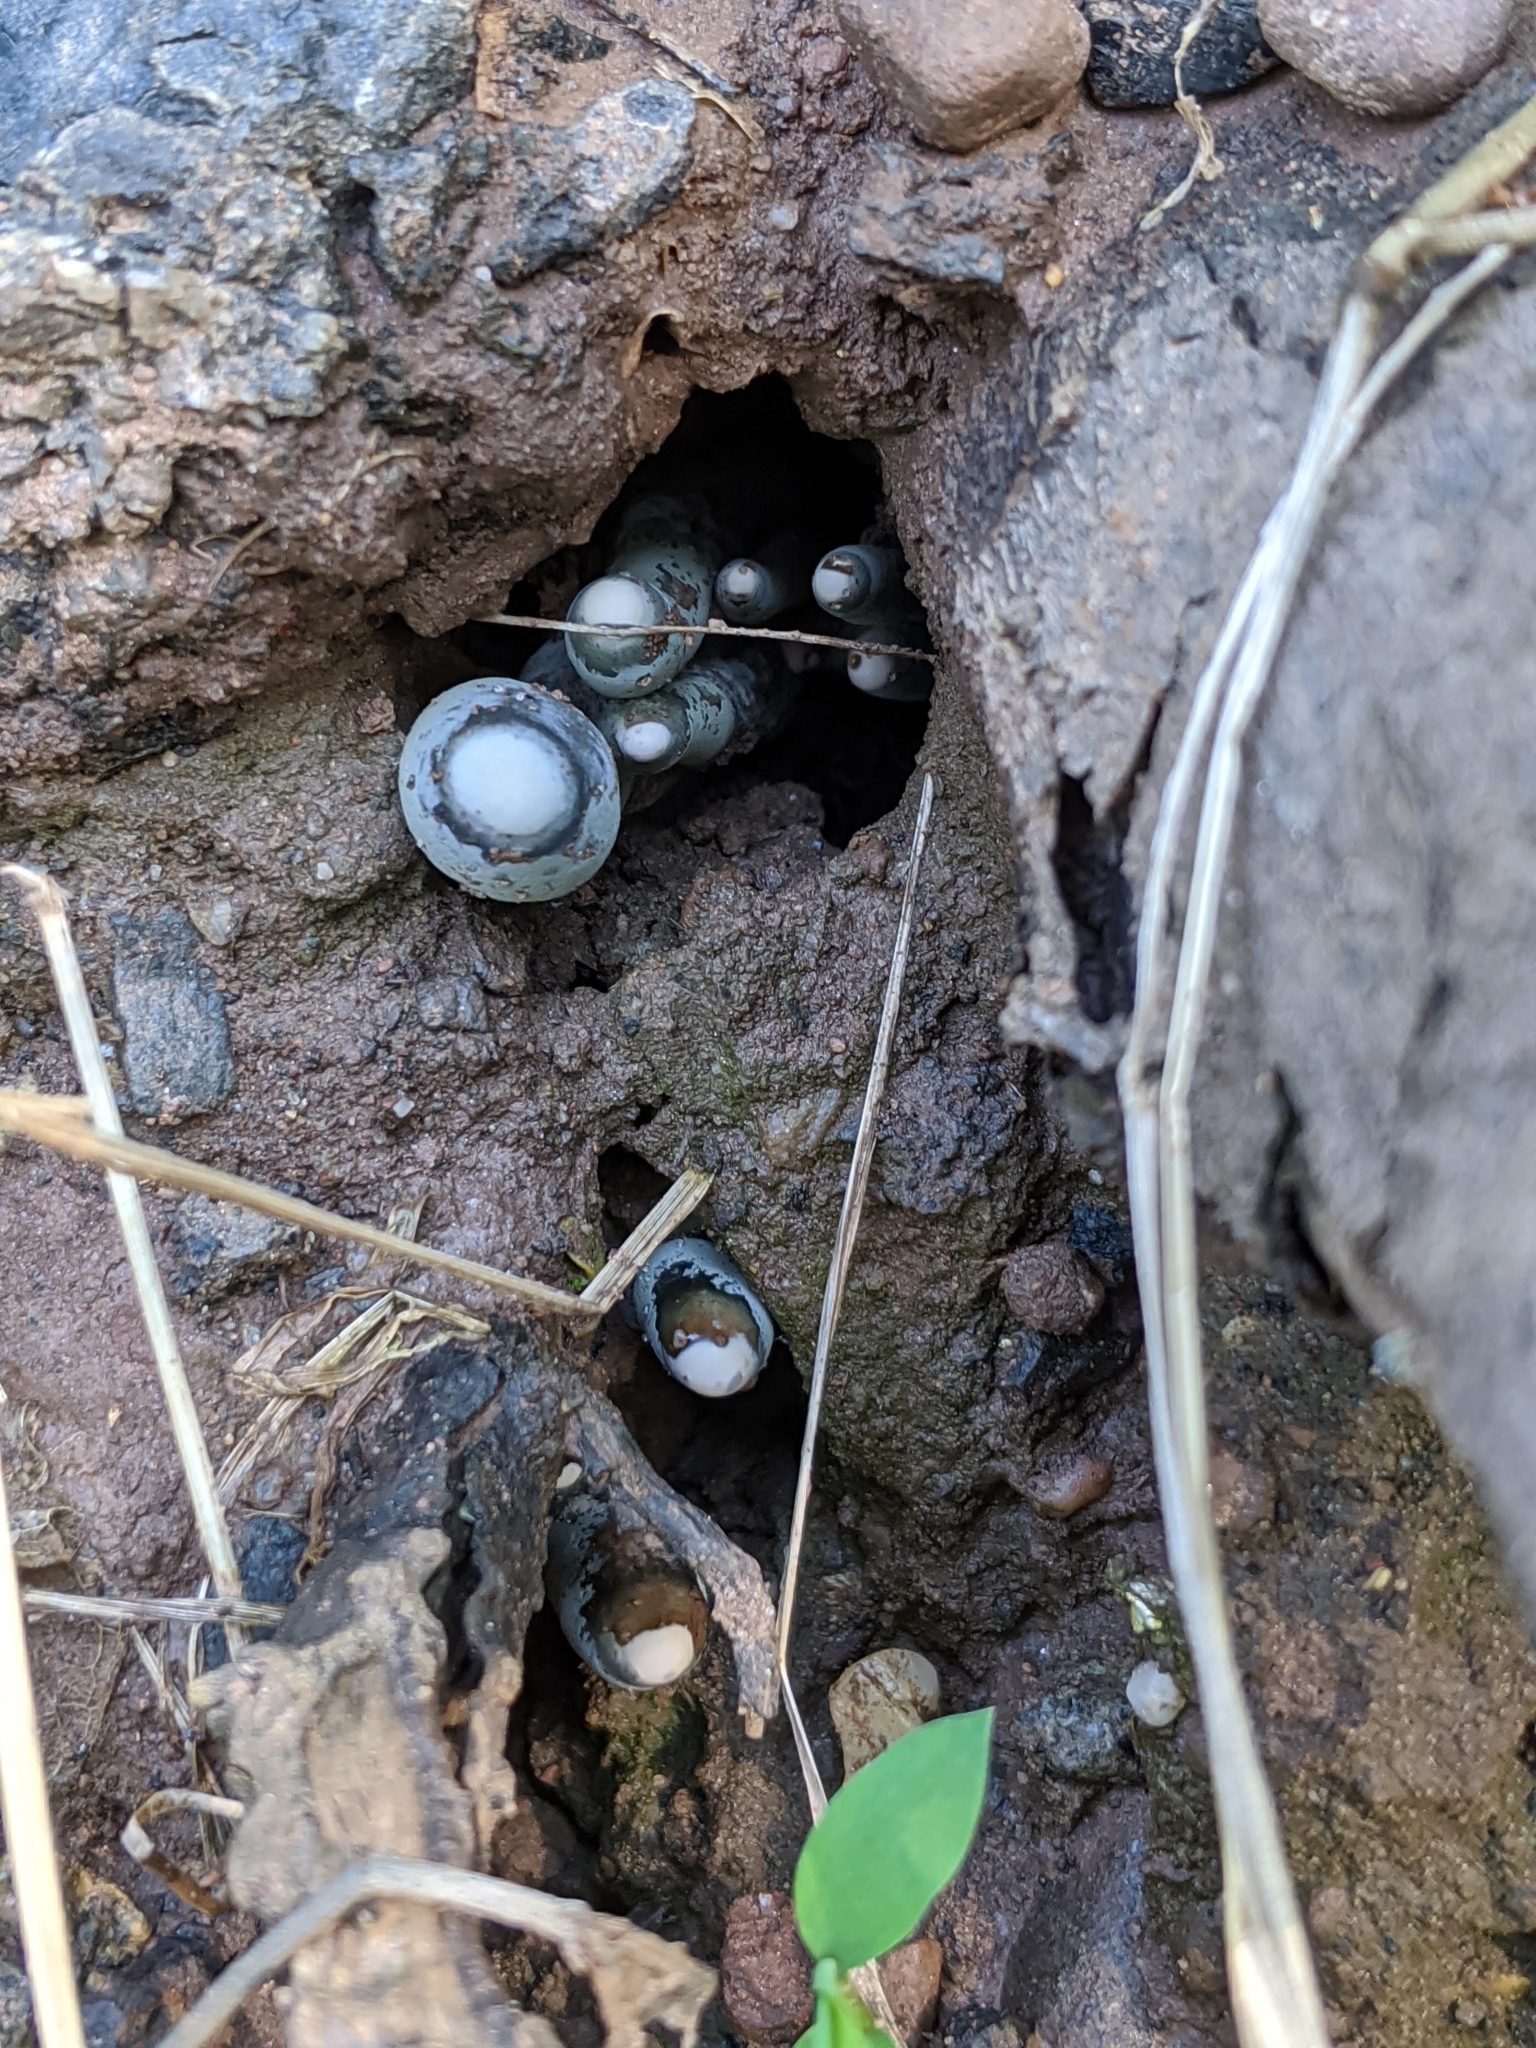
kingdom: Fungi
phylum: Ascomycota
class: Sordariomycetes
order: Xylariales
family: Xylariaceae
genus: Xylaria
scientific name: Xylaria polymorpha
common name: Dead man's fingers
